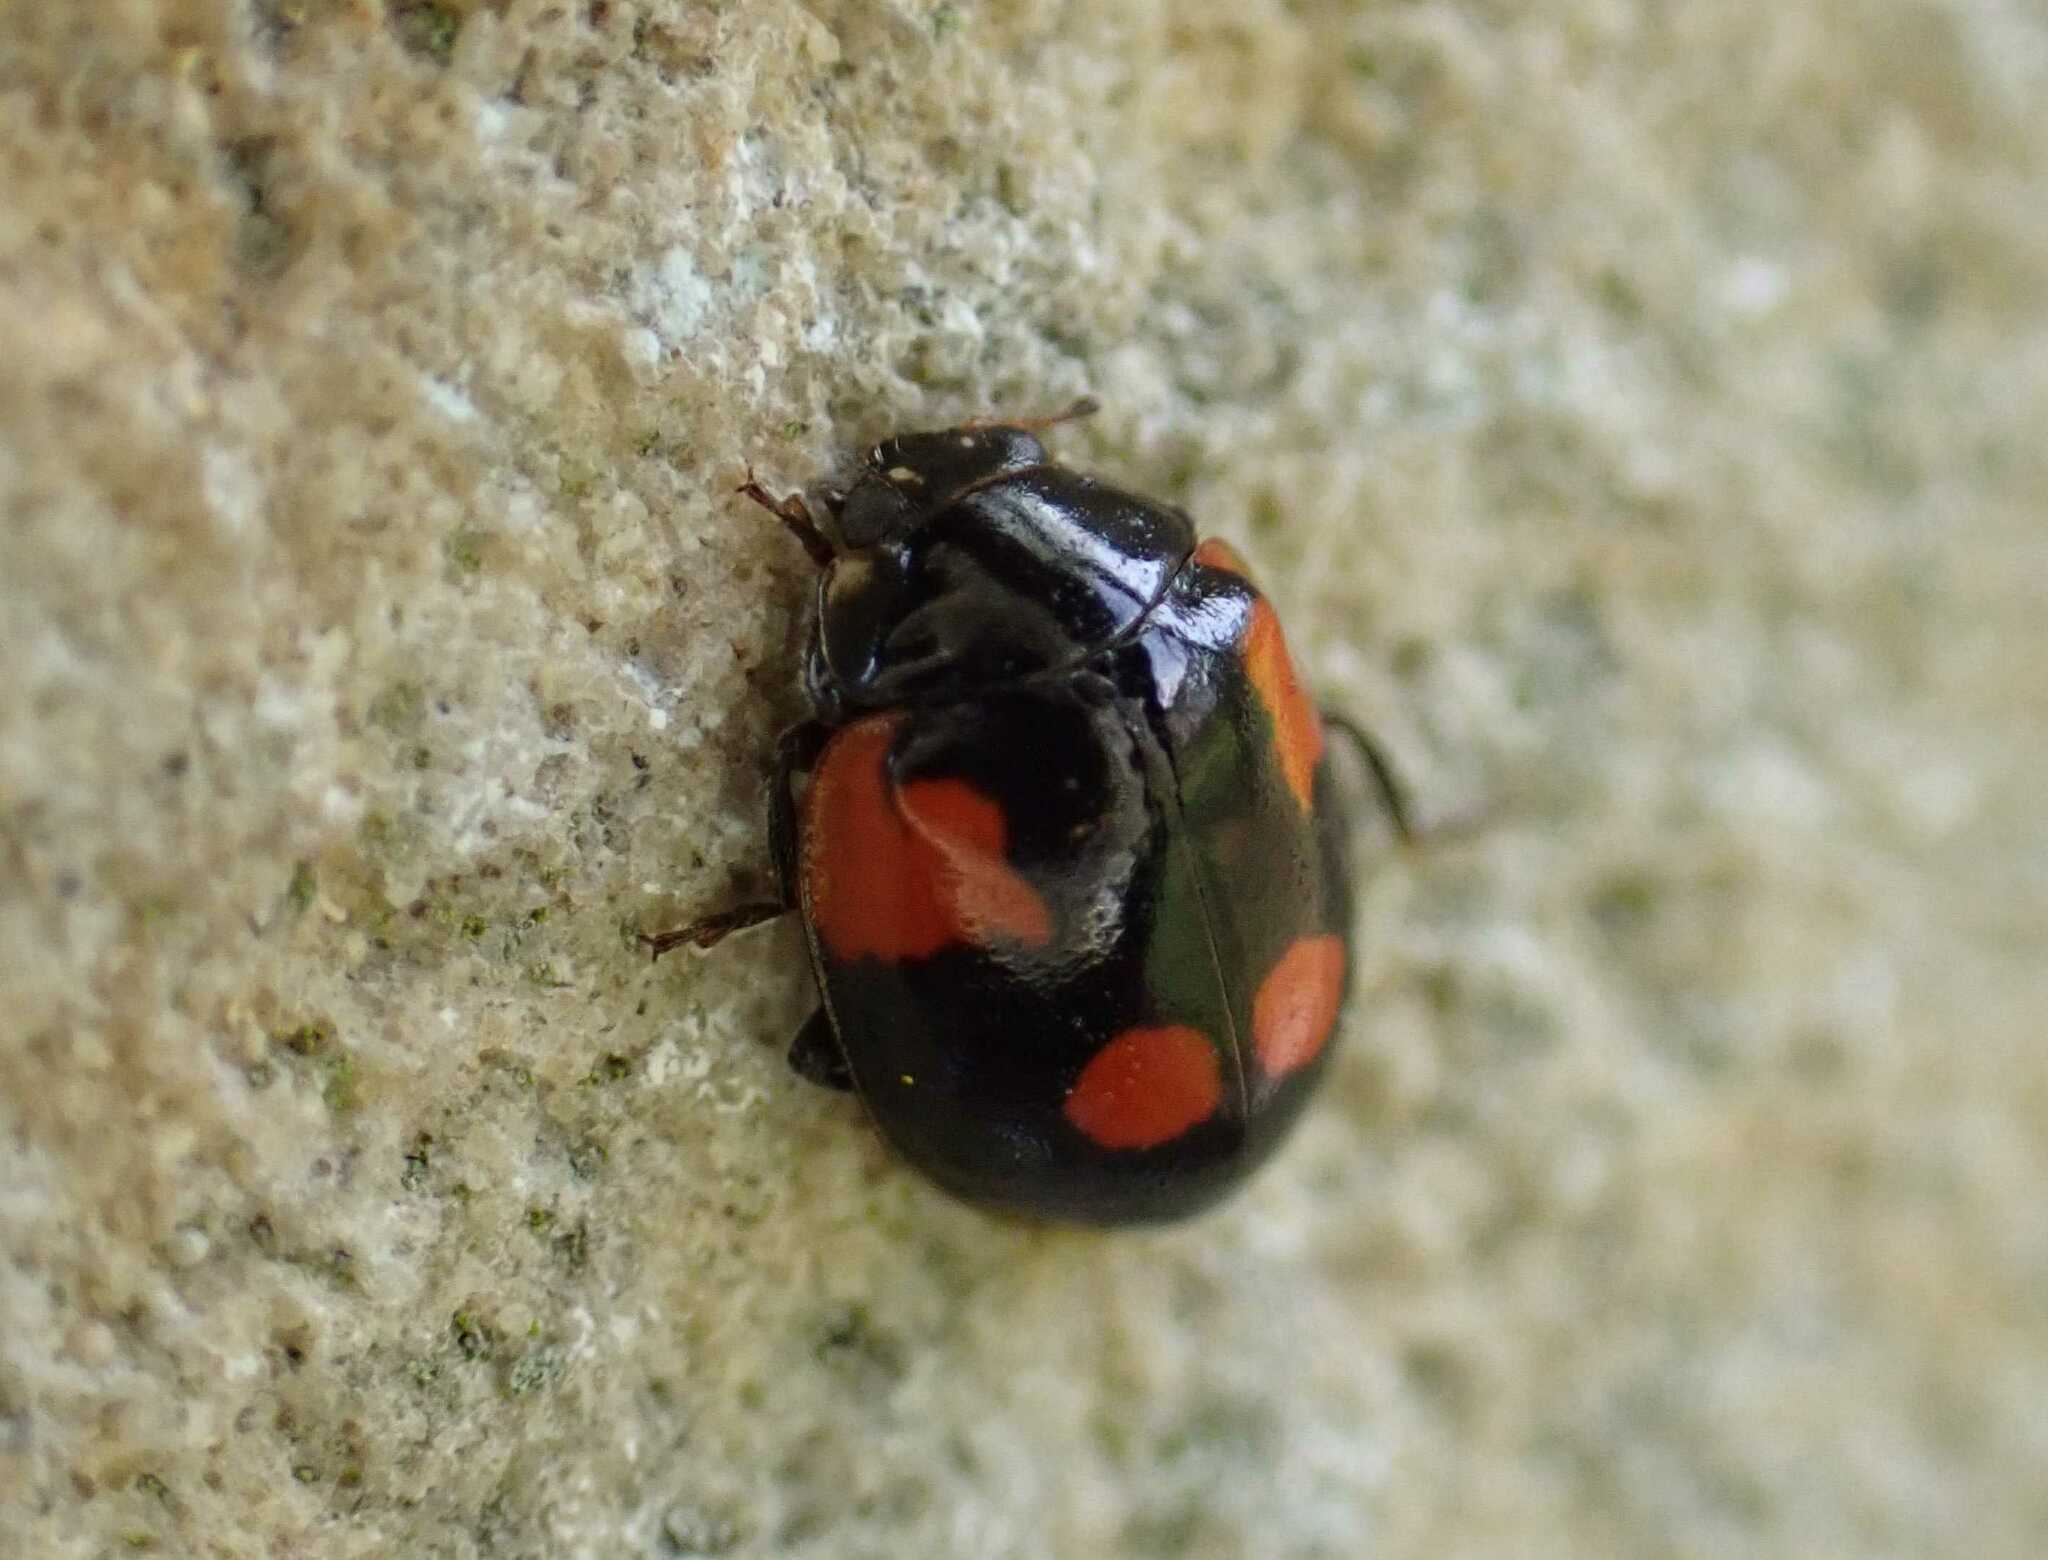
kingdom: Animalia
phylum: Arthropoda
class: Insecta
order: Coleoptera
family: Coccinellidae
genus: Adalia
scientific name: Adalia bipunctata
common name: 2-spot ladybird
